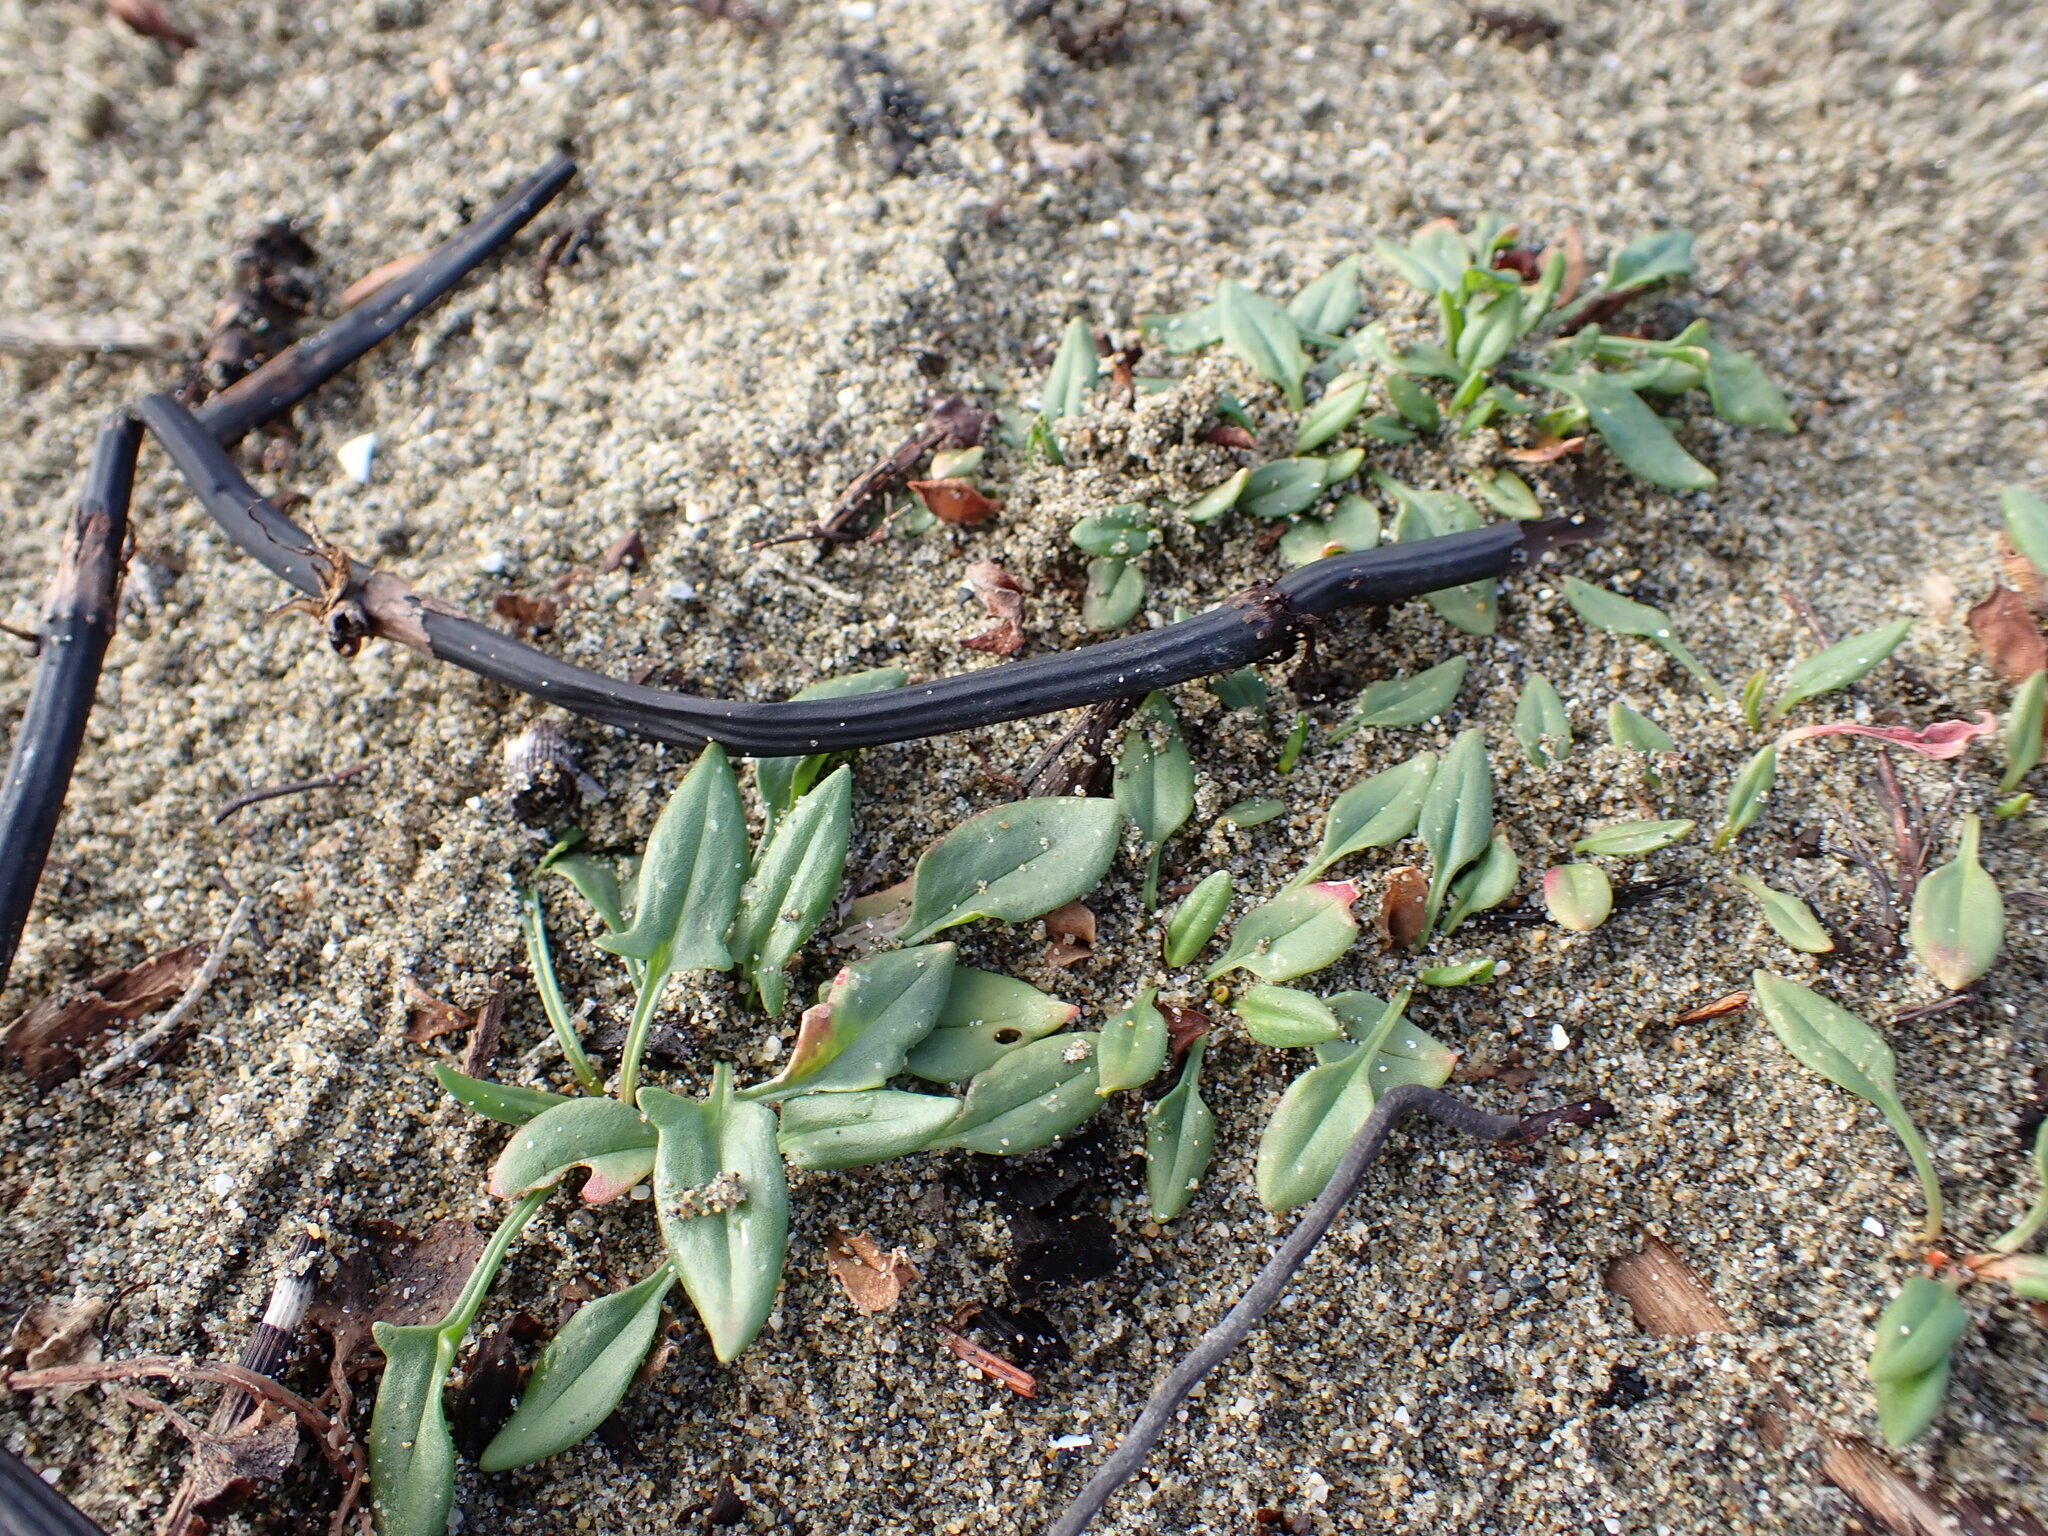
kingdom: Plantae
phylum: Tracheophyta
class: Magnoliopsida
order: Caryophyllales
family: Polygonaceae
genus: Rumex
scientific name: Rumex acetosella
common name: Common sheep sorrel
